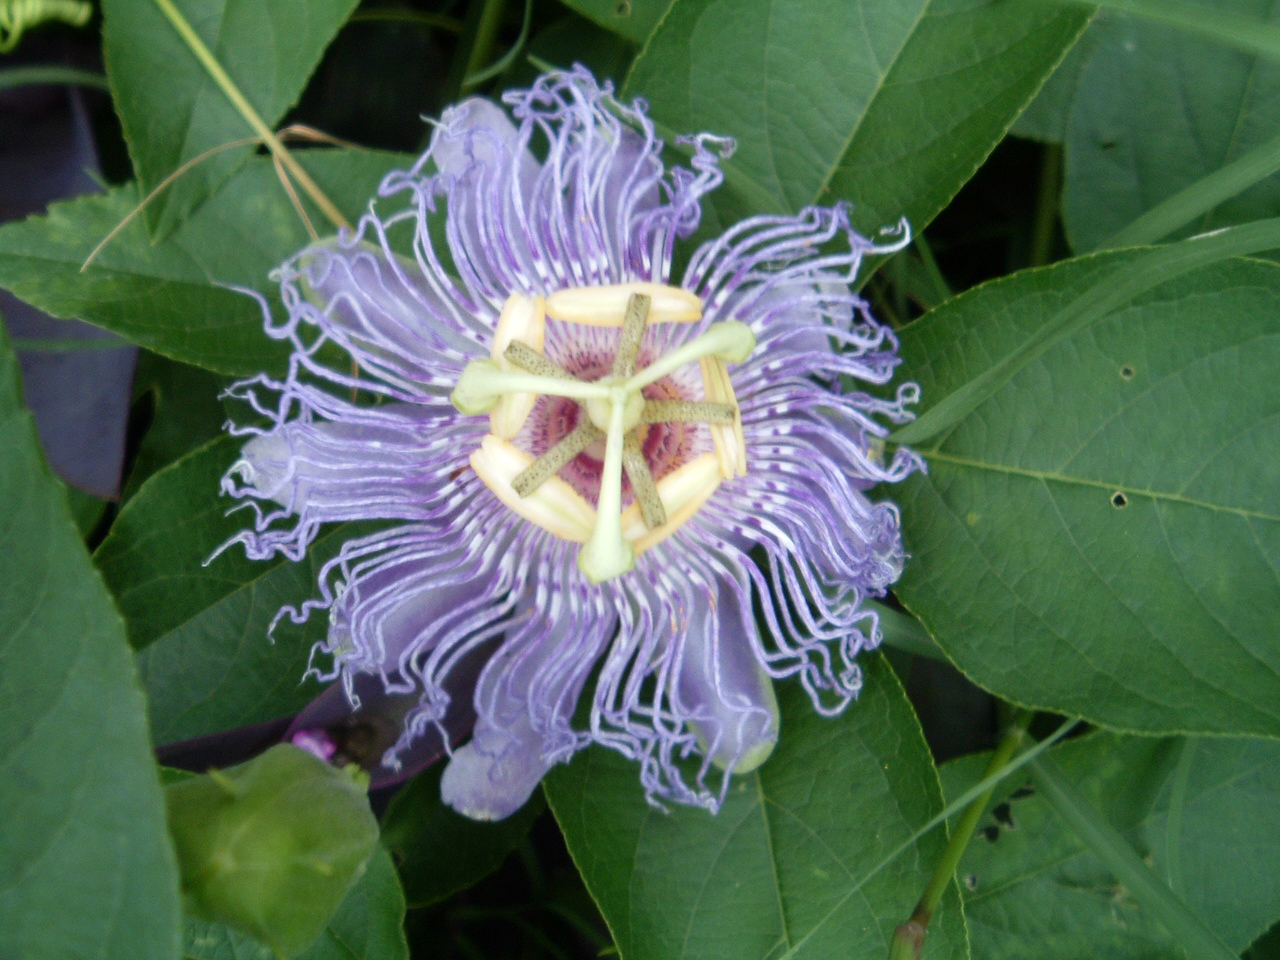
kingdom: Plantae
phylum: Tracheophyta
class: Magnoliopsida
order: Malpighiales
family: Passifloraceae
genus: Passiflora
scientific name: Passiflora incarnata
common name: Apricot-vine
